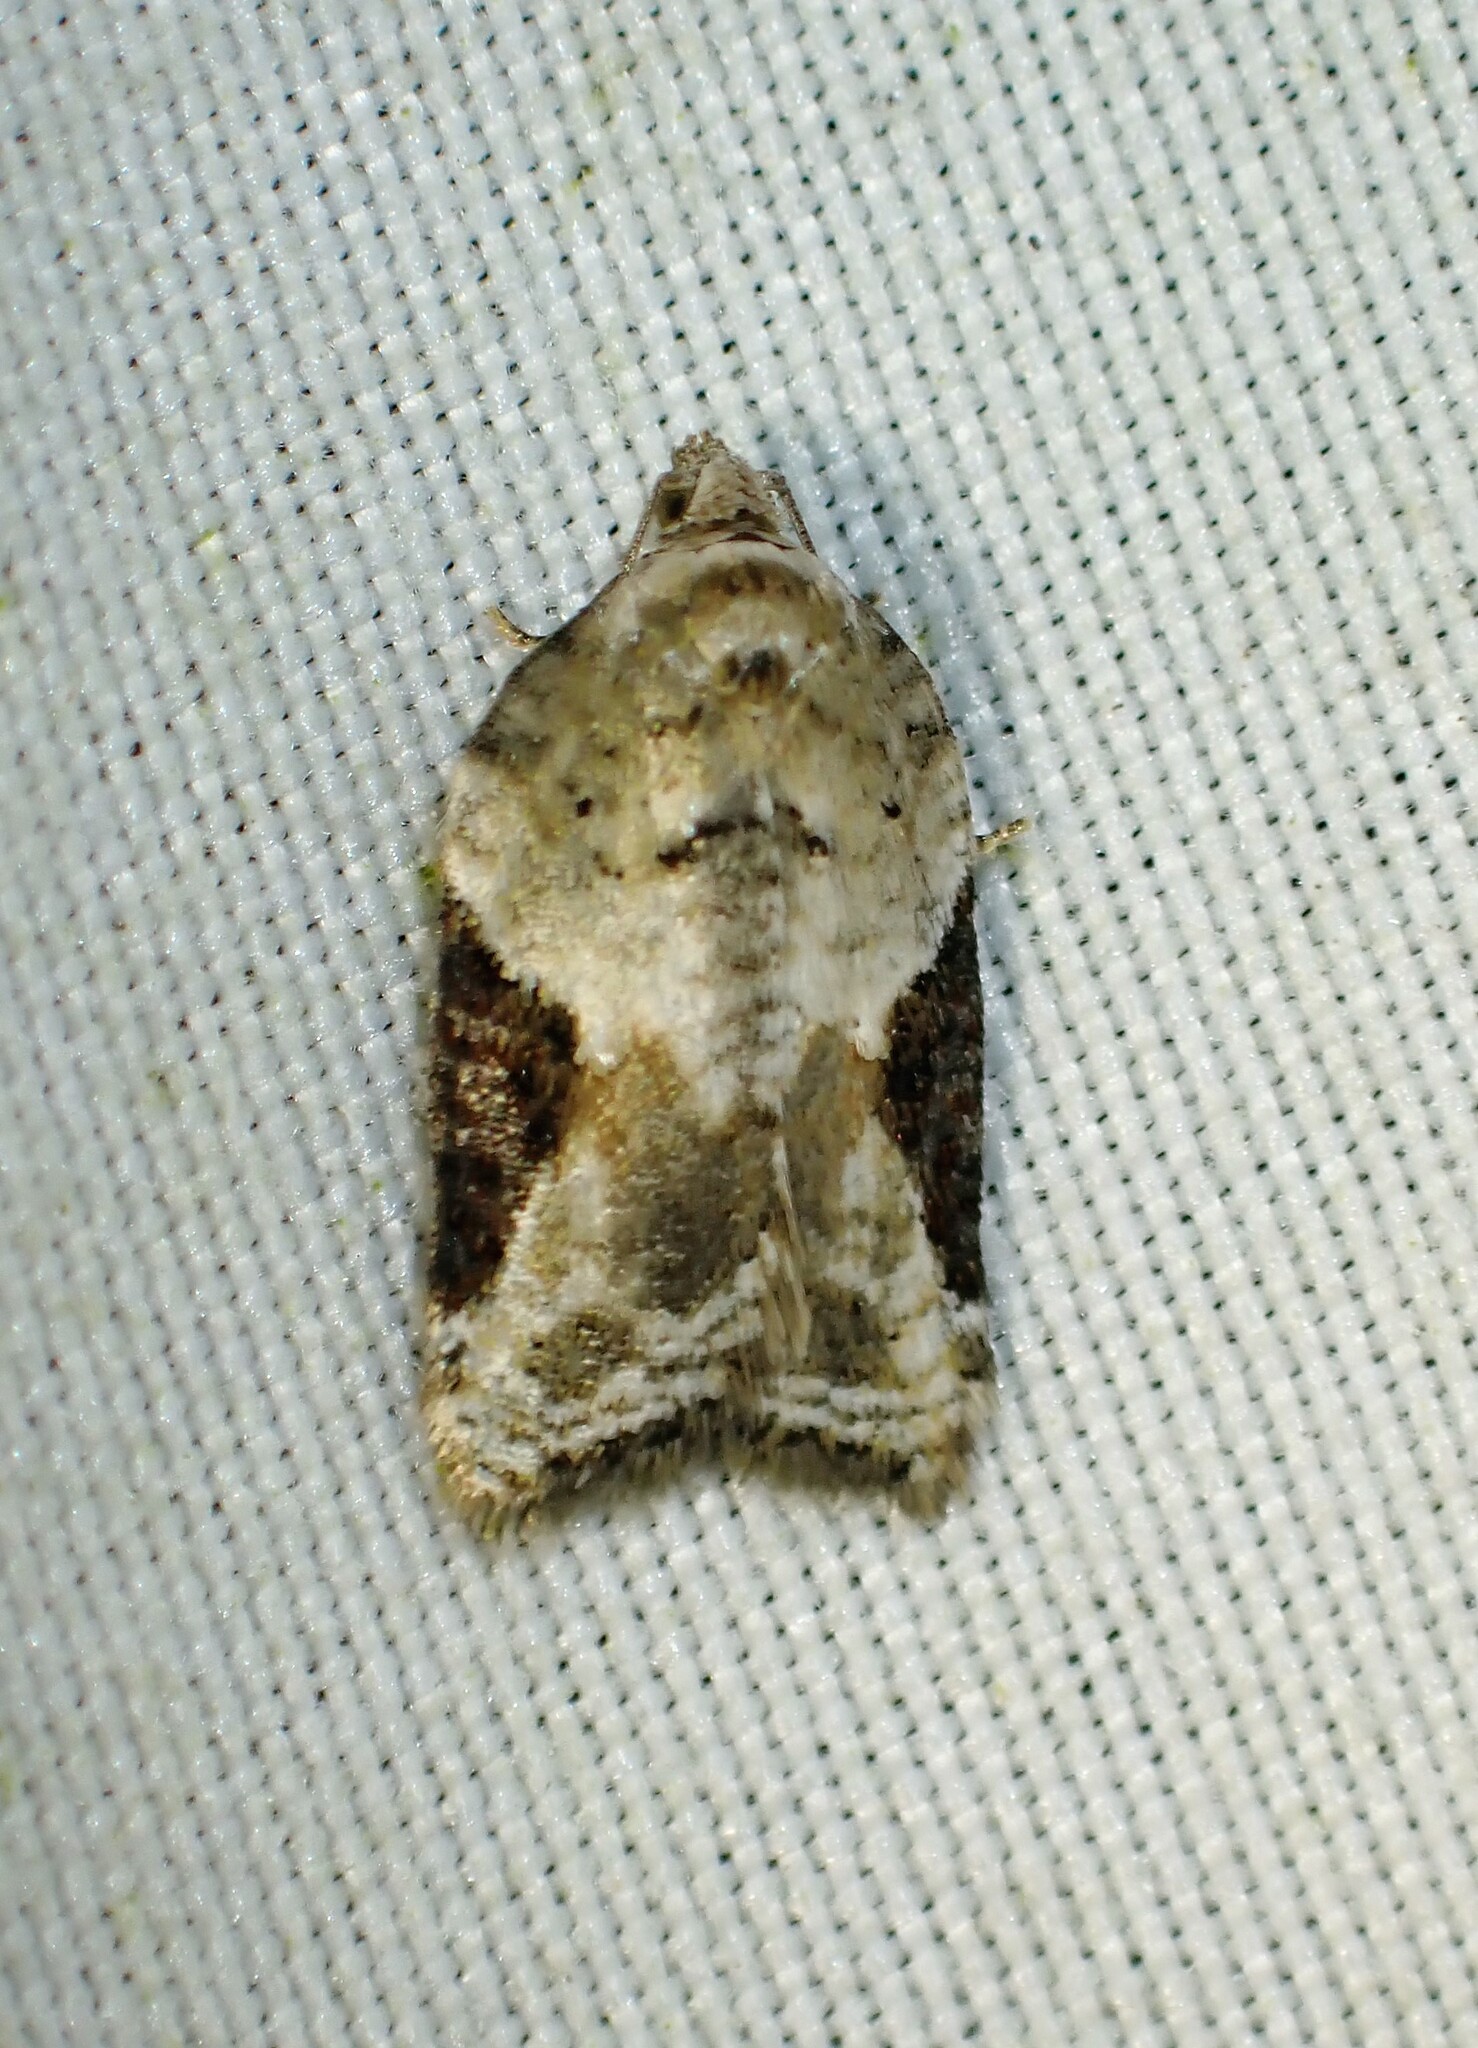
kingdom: Animalia
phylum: Arthropoda
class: Insecta
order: Lepidoptera
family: Tortricidae
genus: Acleris
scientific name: Acleris forbesana
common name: Forbes' acleris moth
